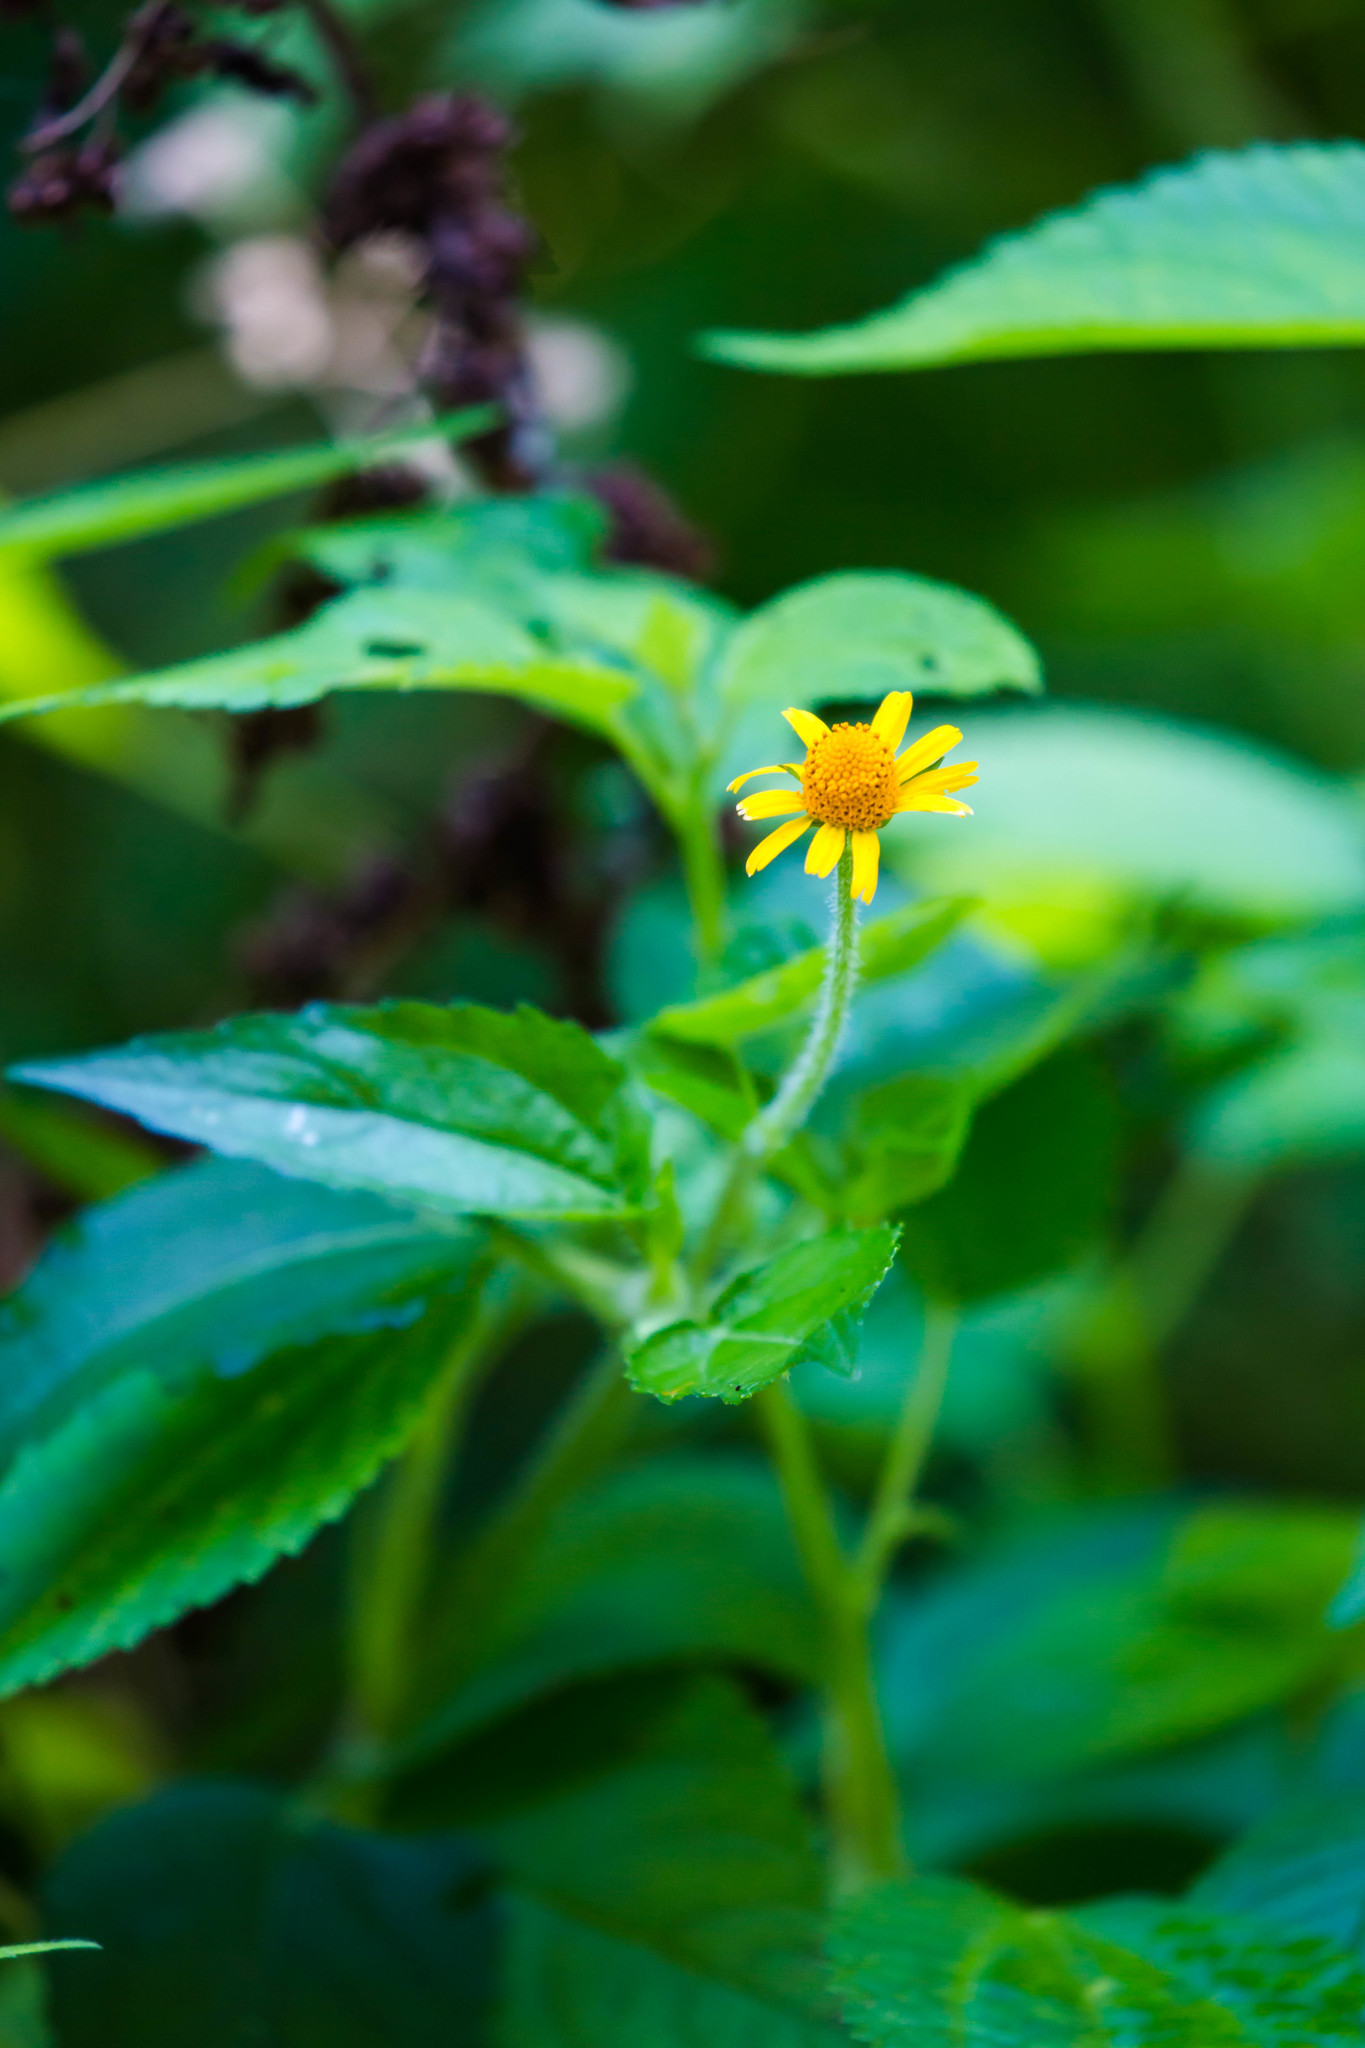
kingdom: Plantae
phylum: Tracheophyta
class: Magnoliopsida
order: Asterales
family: Asteraceae
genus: Acmella
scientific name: Acmella repens
